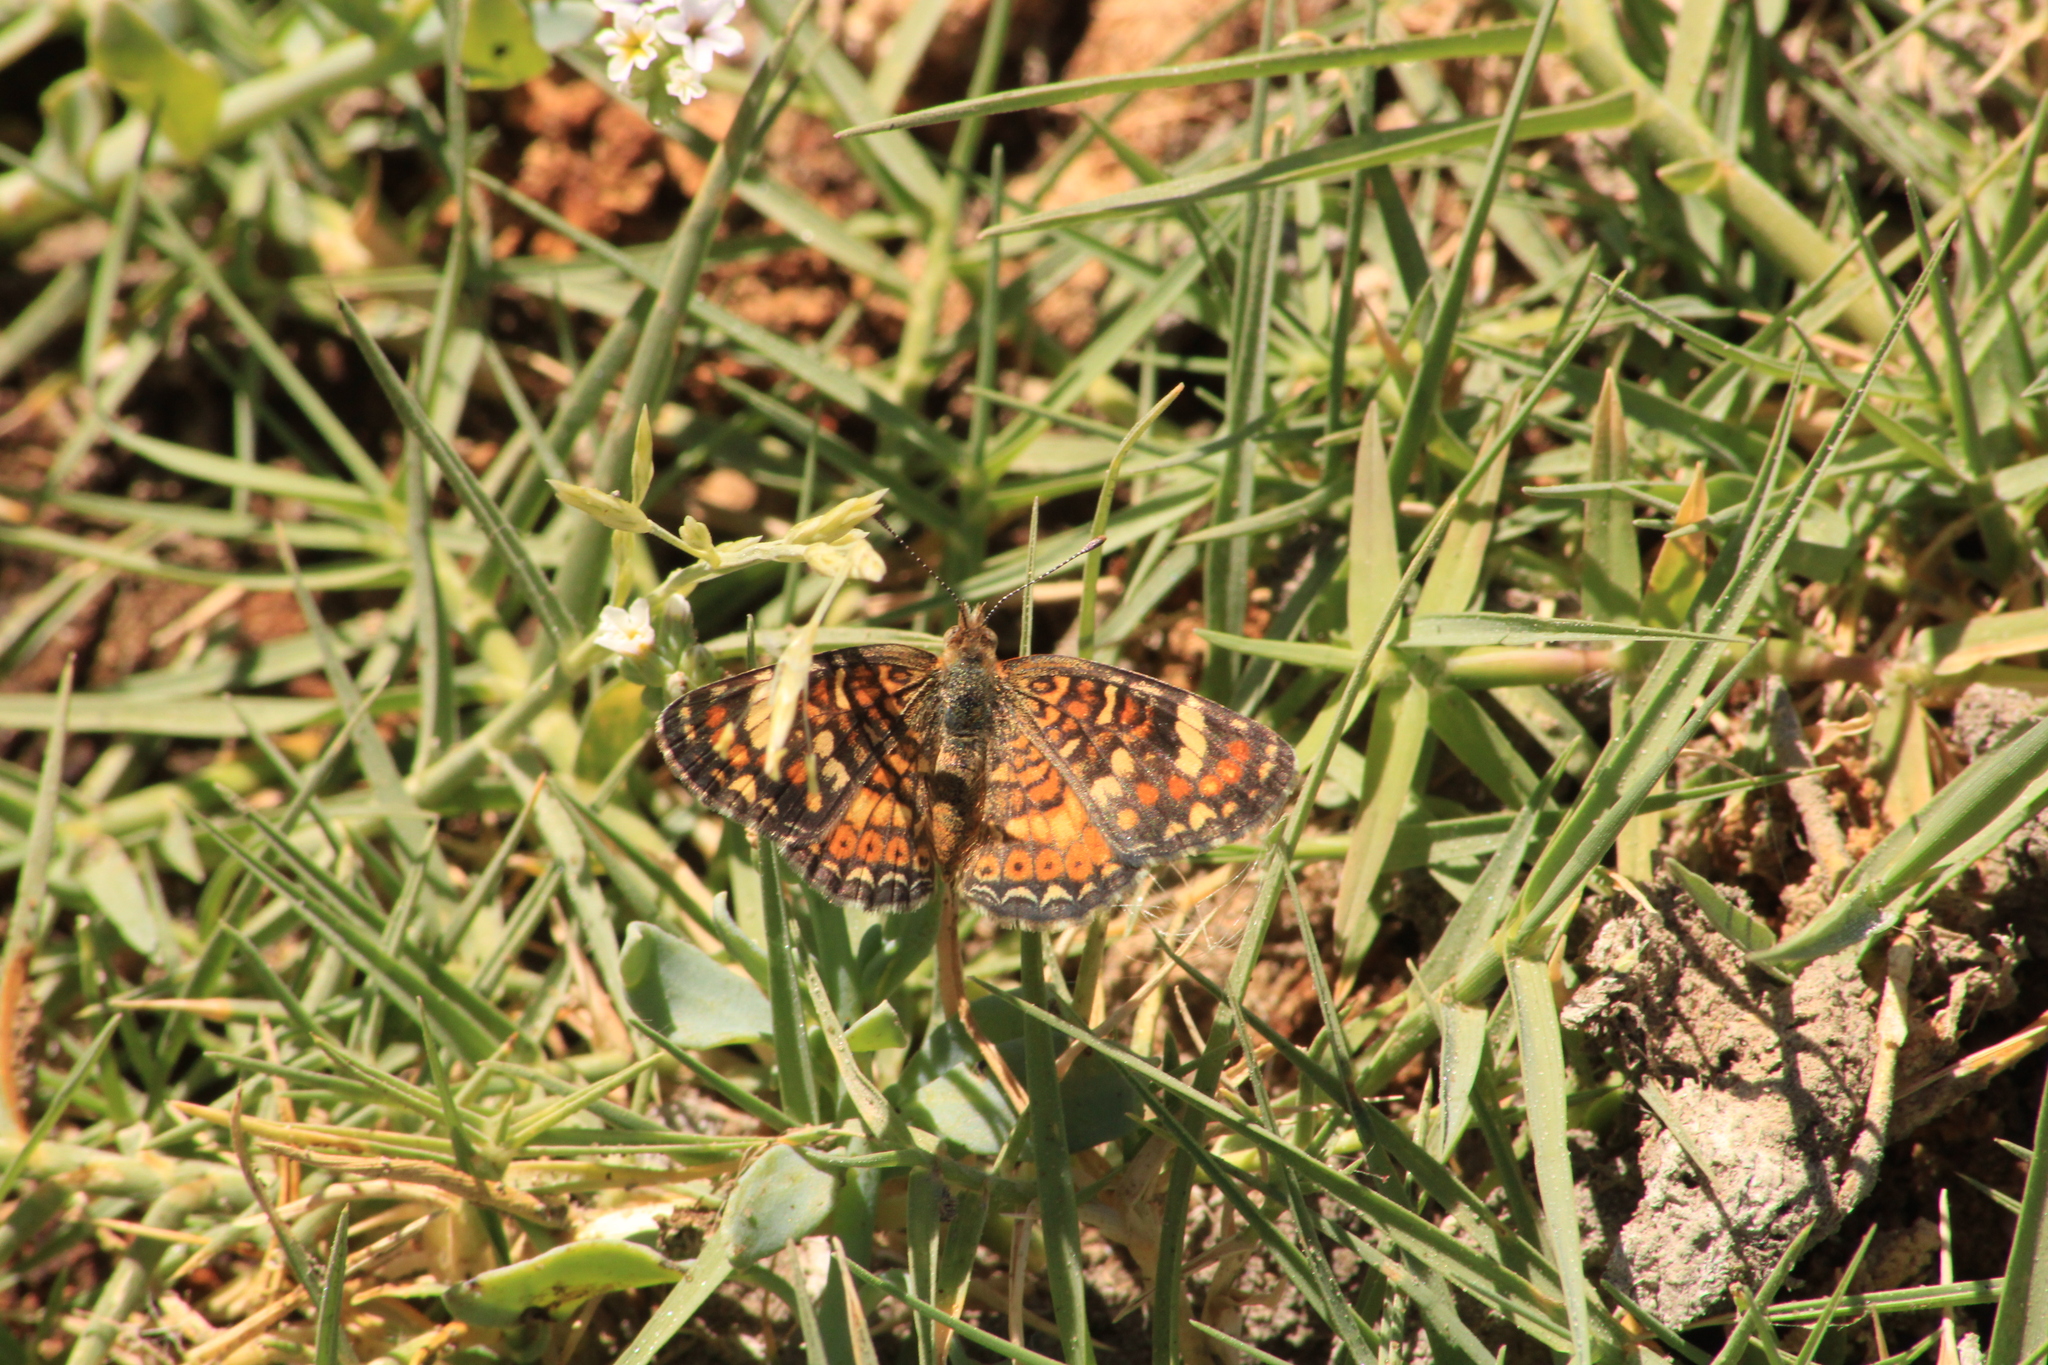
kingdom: Animalia
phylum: Arthropoda
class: Insecta
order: Lepidoptera
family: Nymphalidae
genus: Phyciodes
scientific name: Phyciodes picta
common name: Painted crescent
